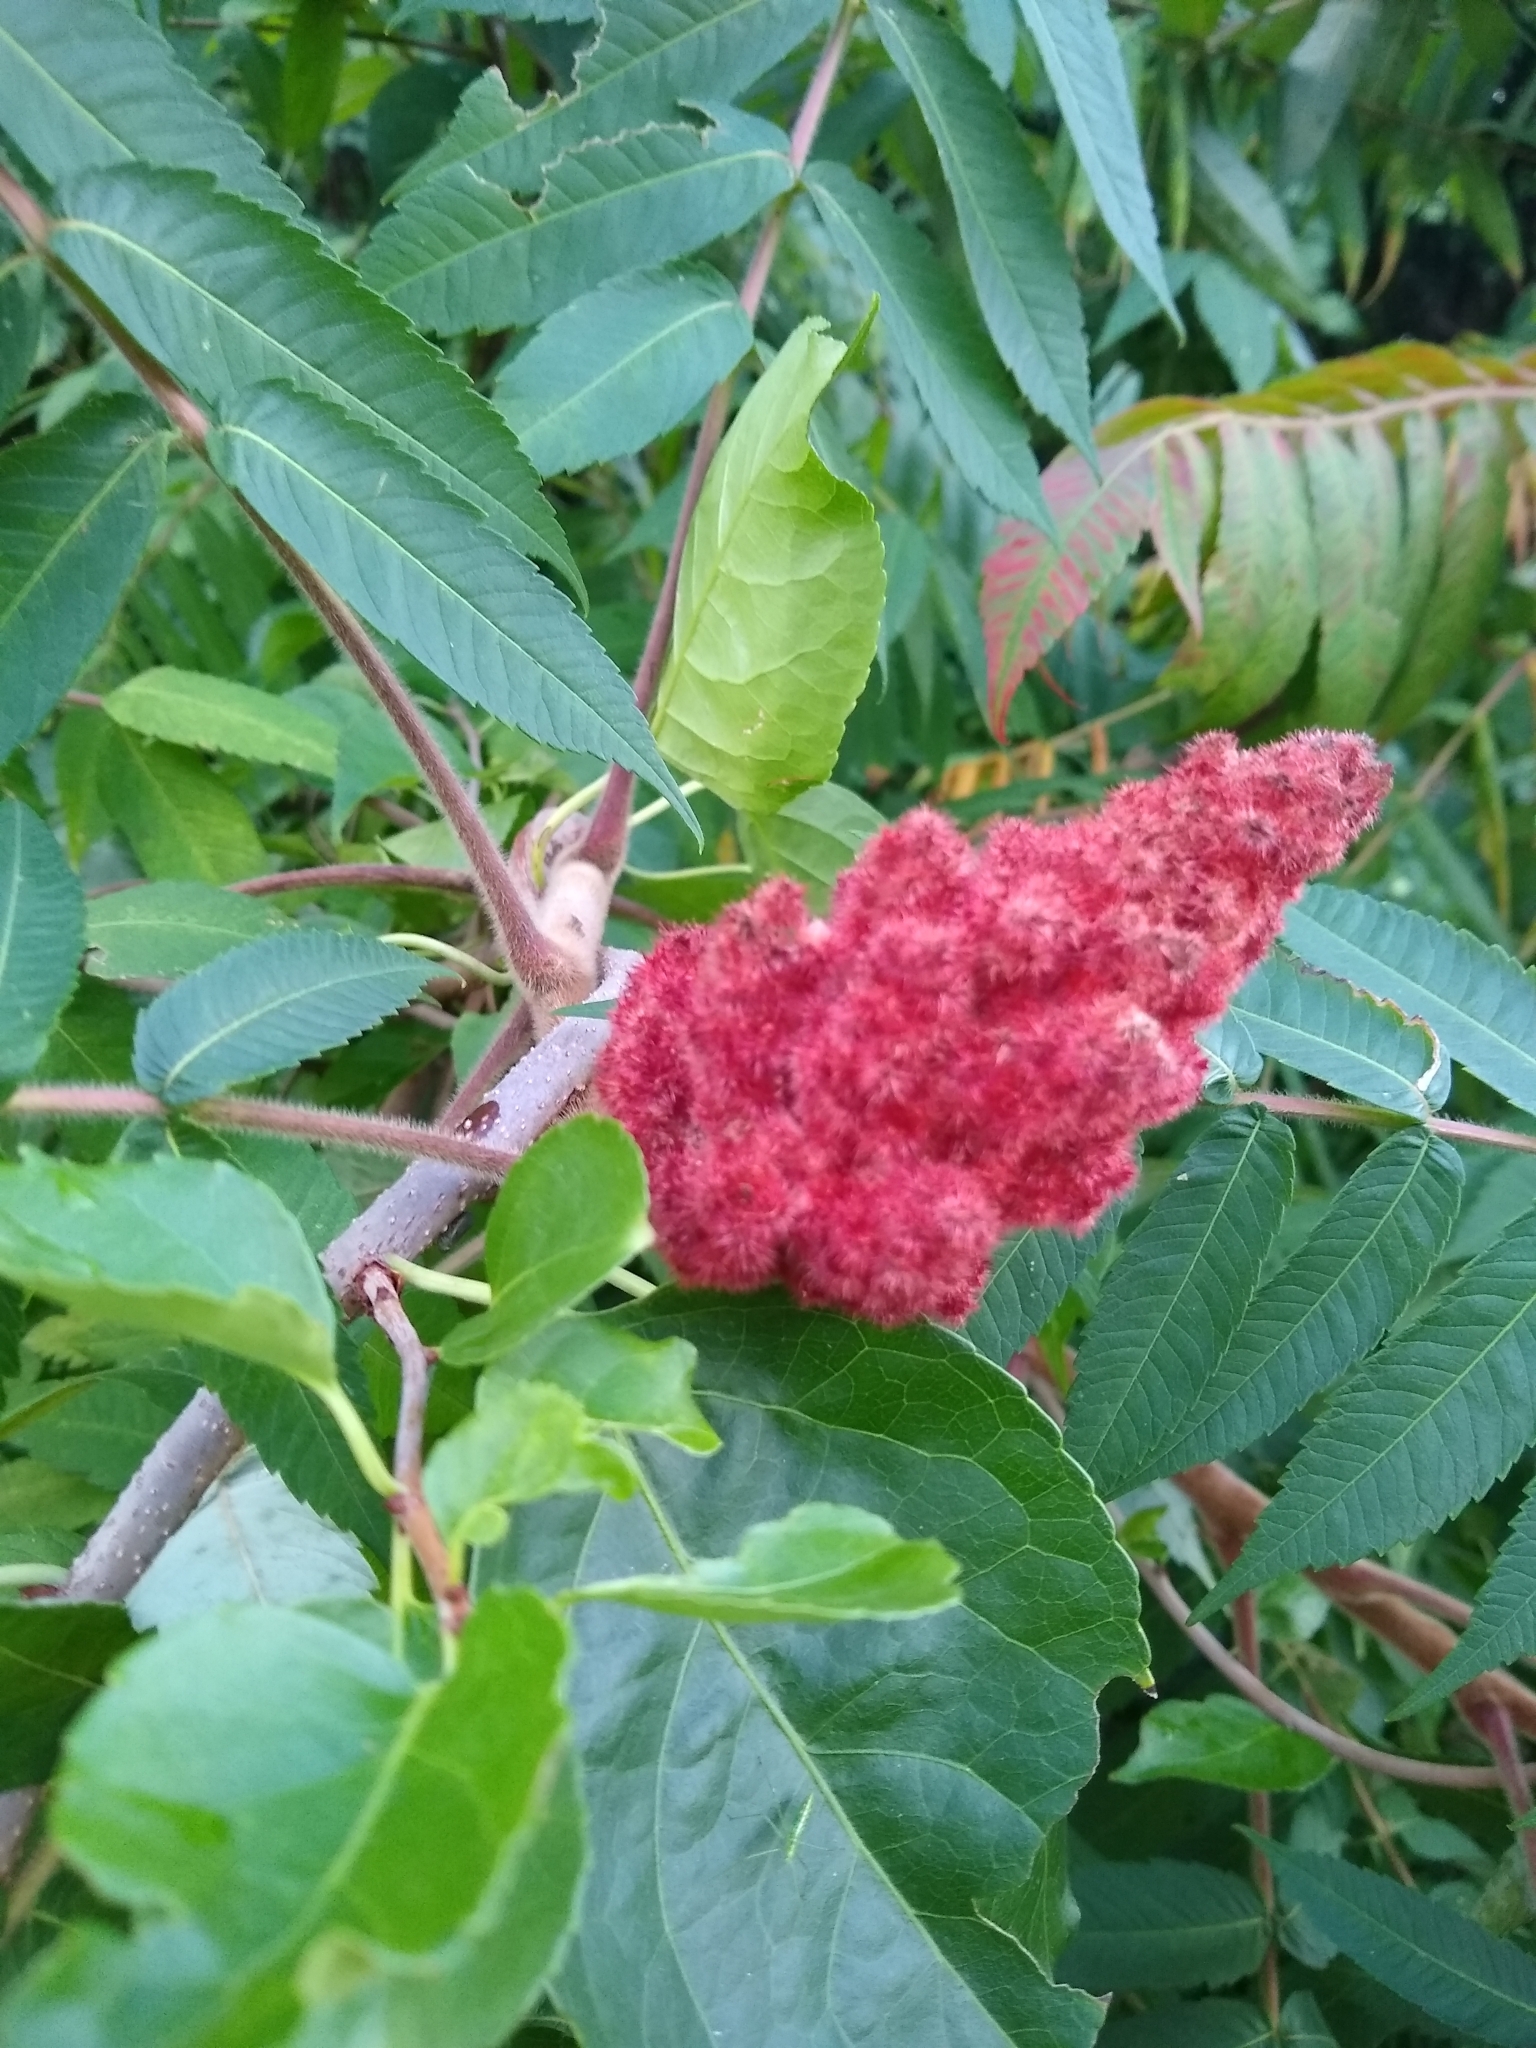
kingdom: Plantae
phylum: Tracheophyta
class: Magnoliopsida
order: Sapindales
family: Anacardiaceae
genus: Rhus
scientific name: Rhus typhina
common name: Staghorn sumac
